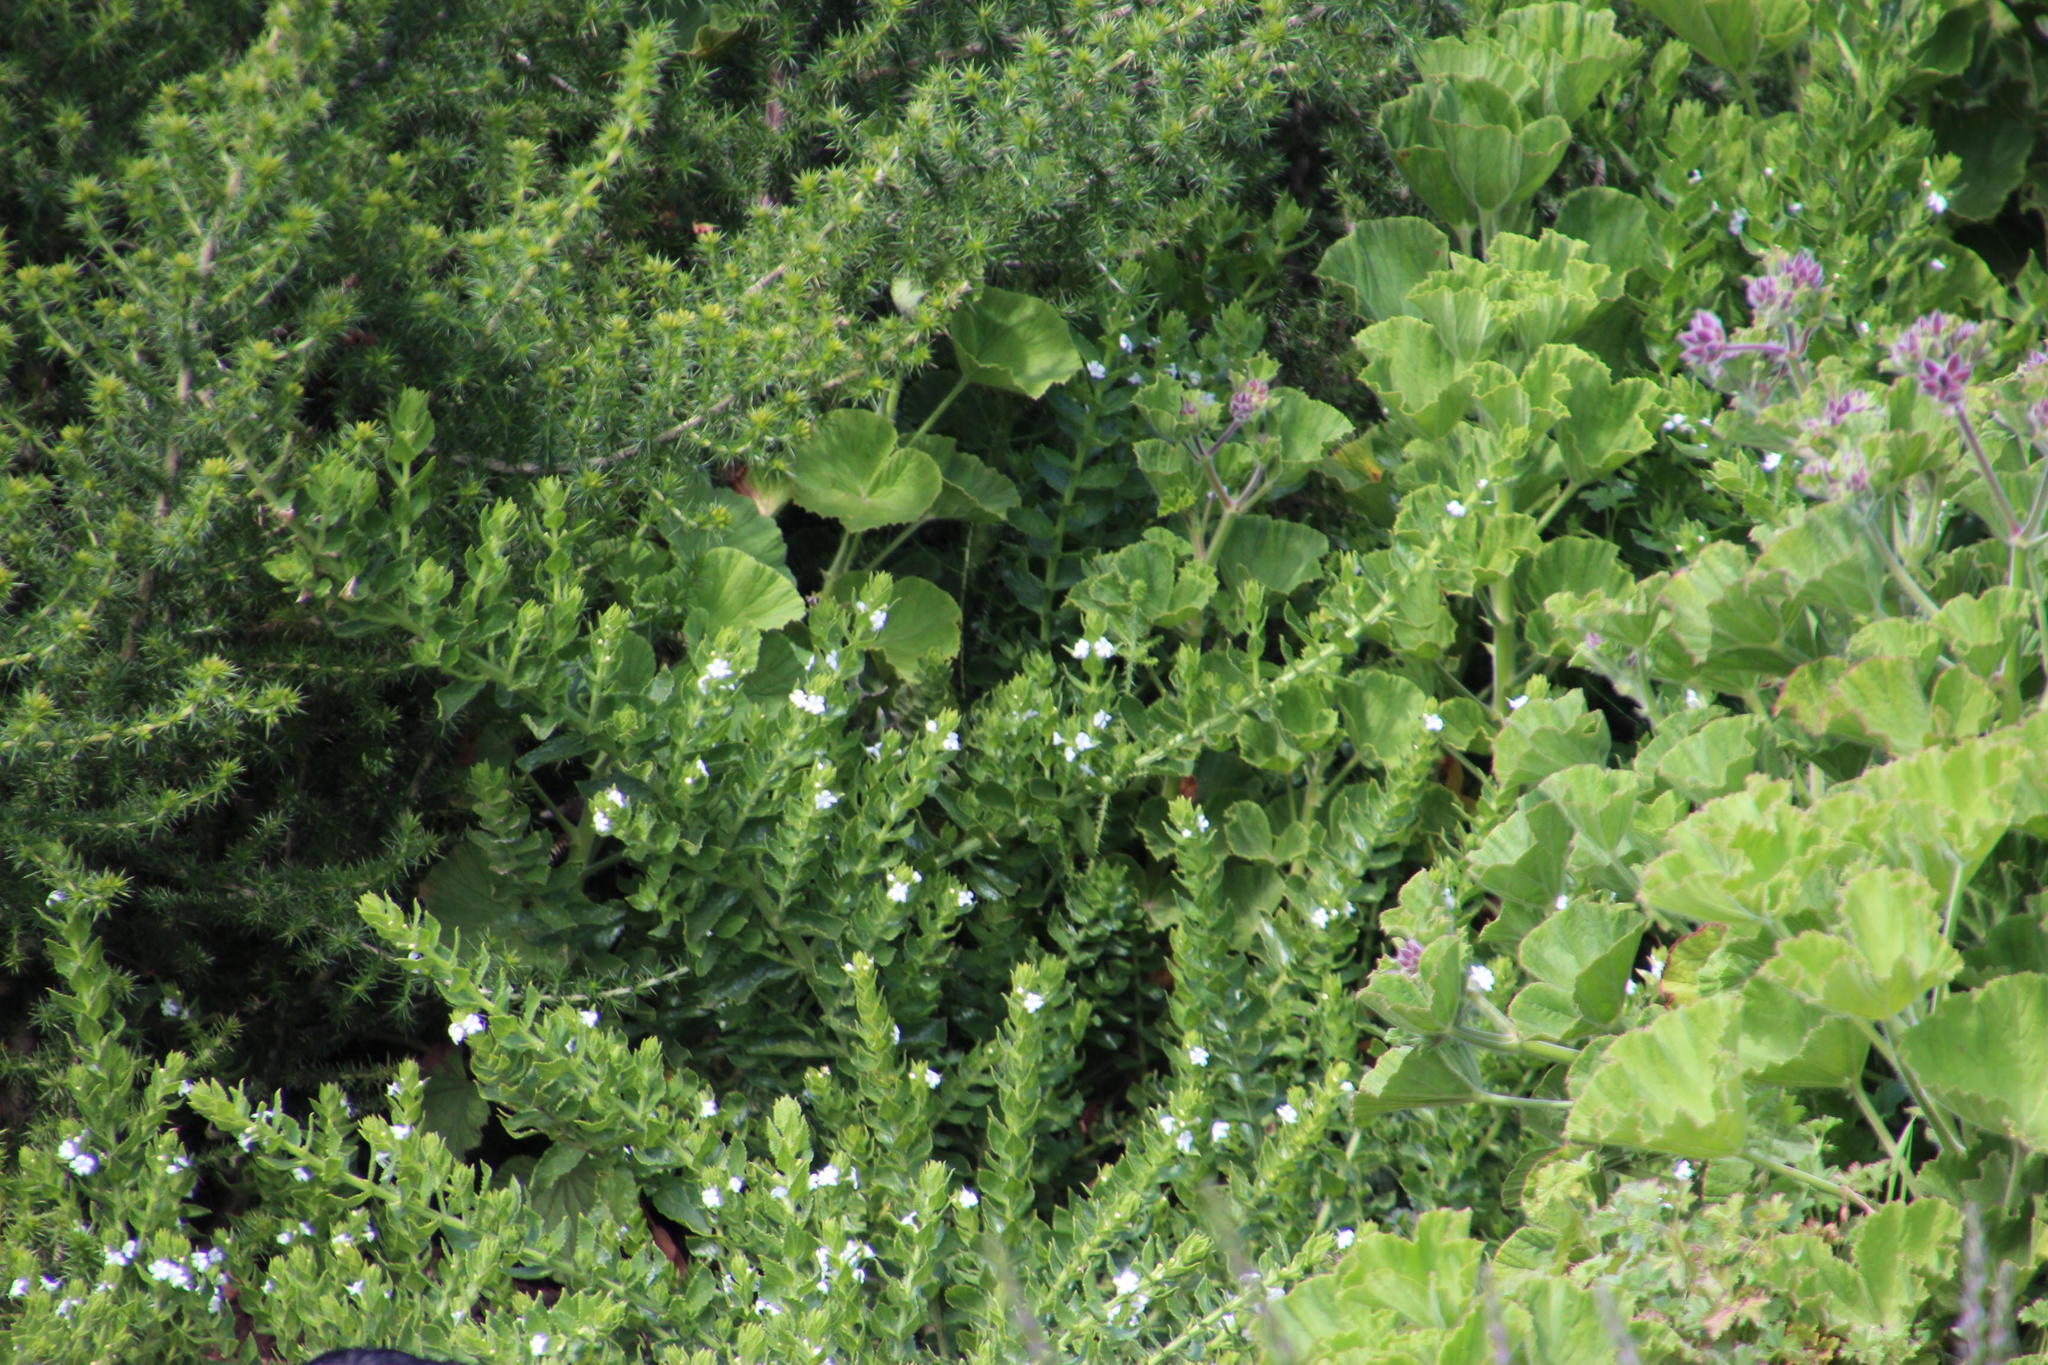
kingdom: Plantae
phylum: Tracheophyta
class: Magnoliopsida
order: Lamiales
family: Scrophulariaceae
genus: Oftia
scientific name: Oftia africana
